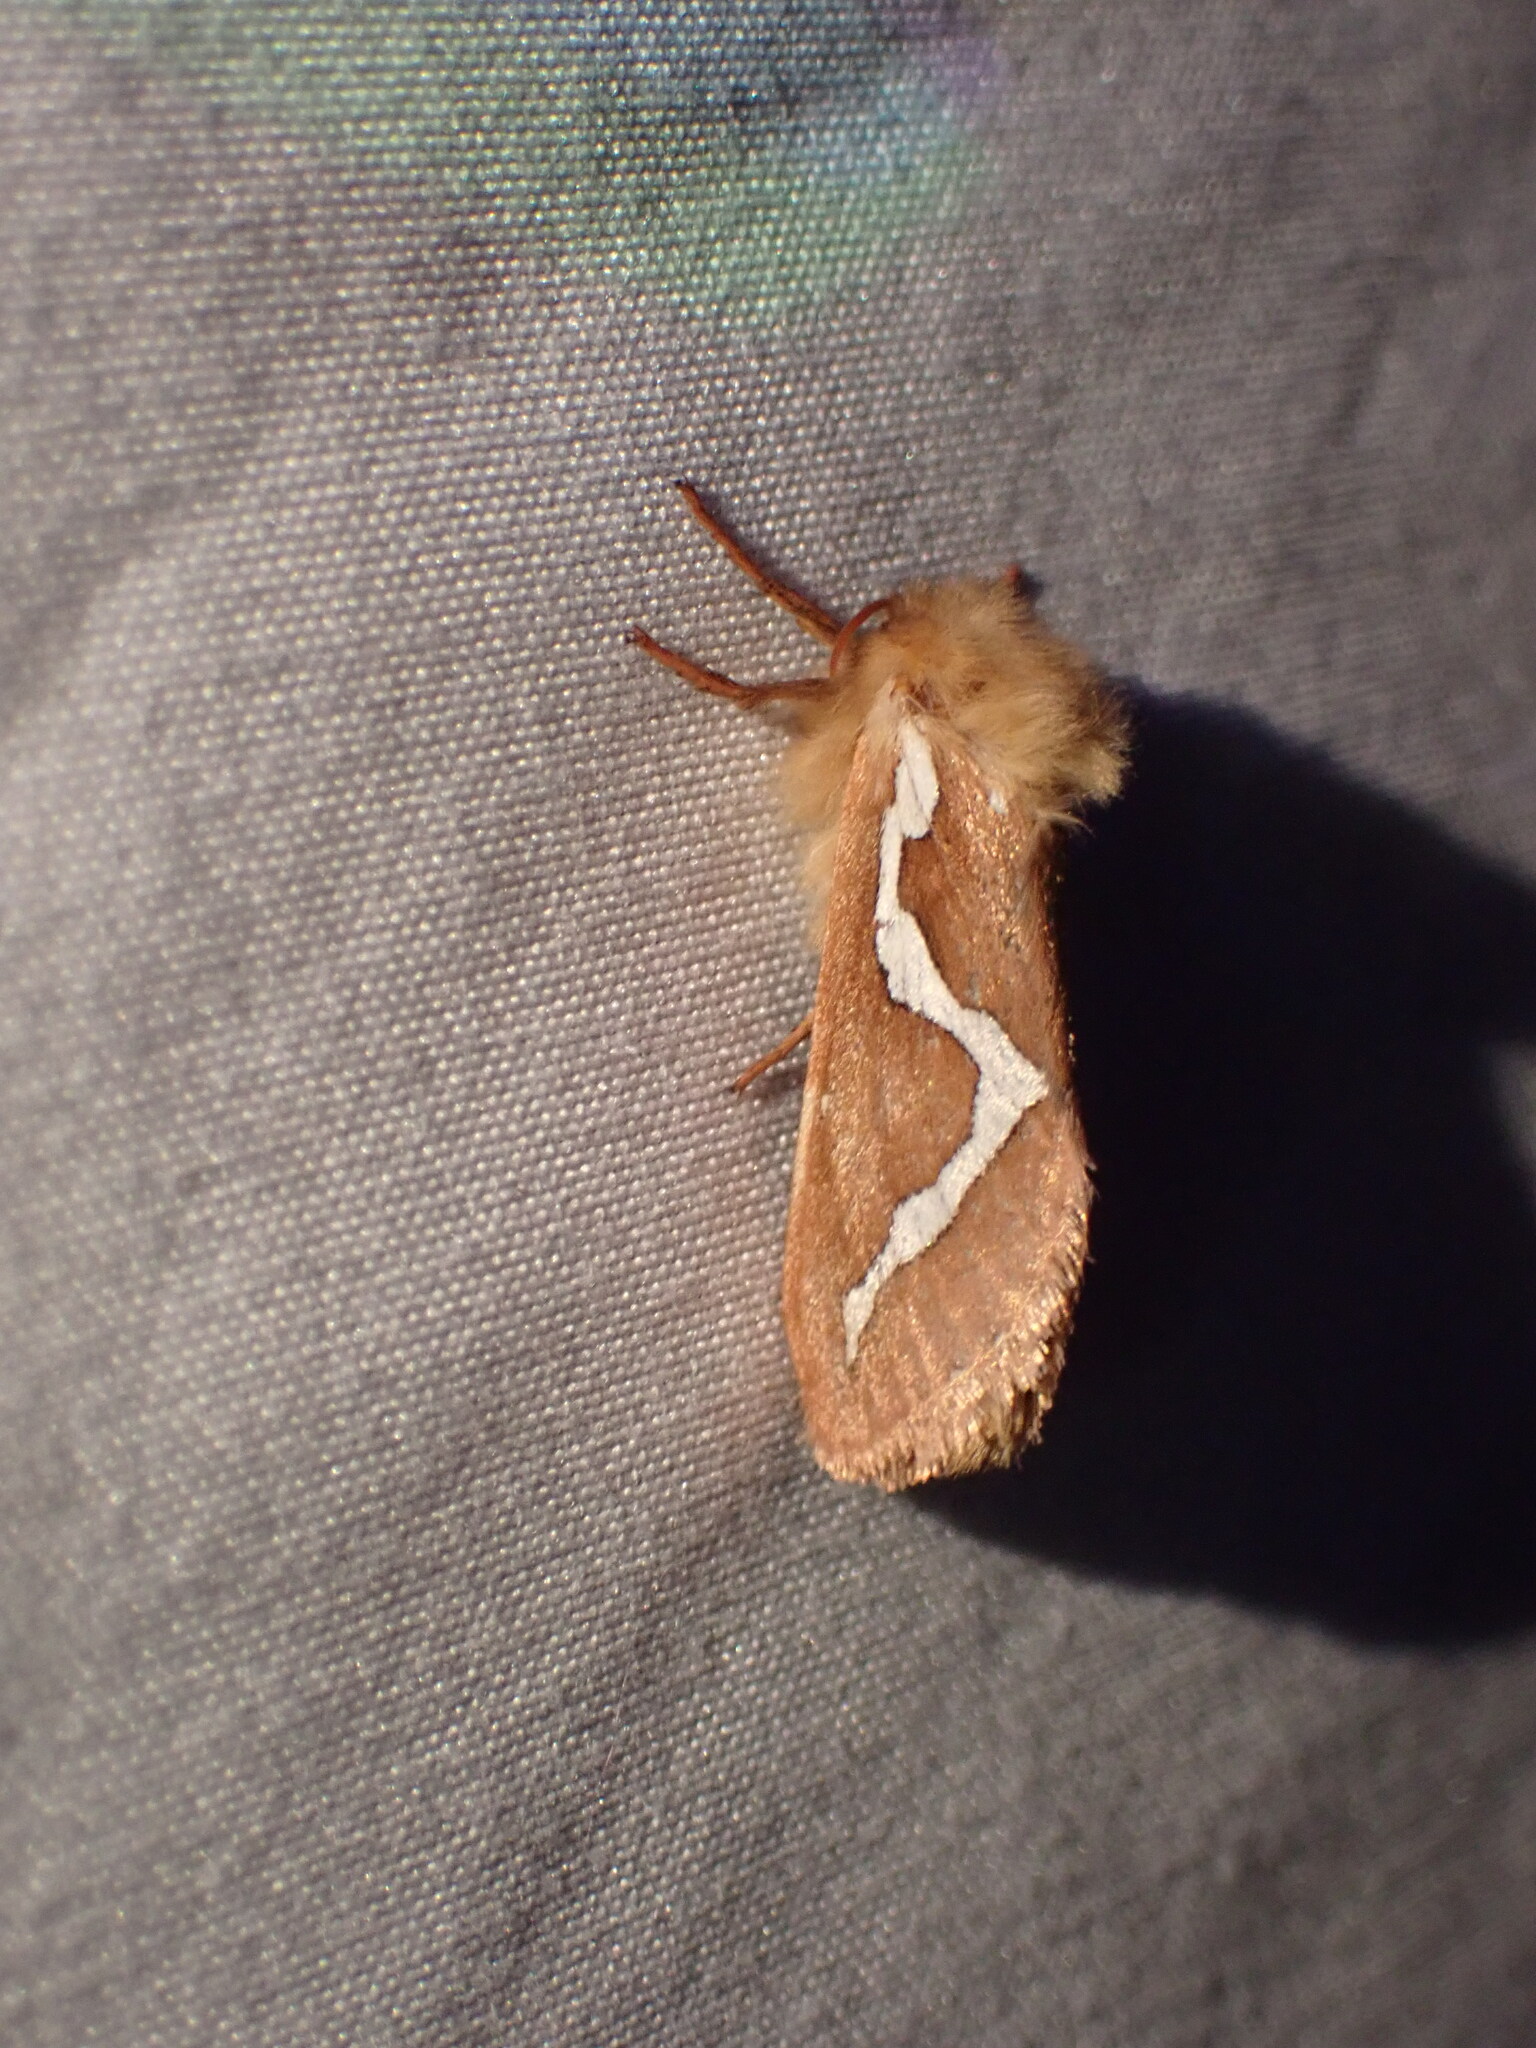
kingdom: Animalia
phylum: Arthropoda
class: Insecta
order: Lepidoptera
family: Hepialidae
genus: Gazoryctra
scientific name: Gazoryctra novigannus
